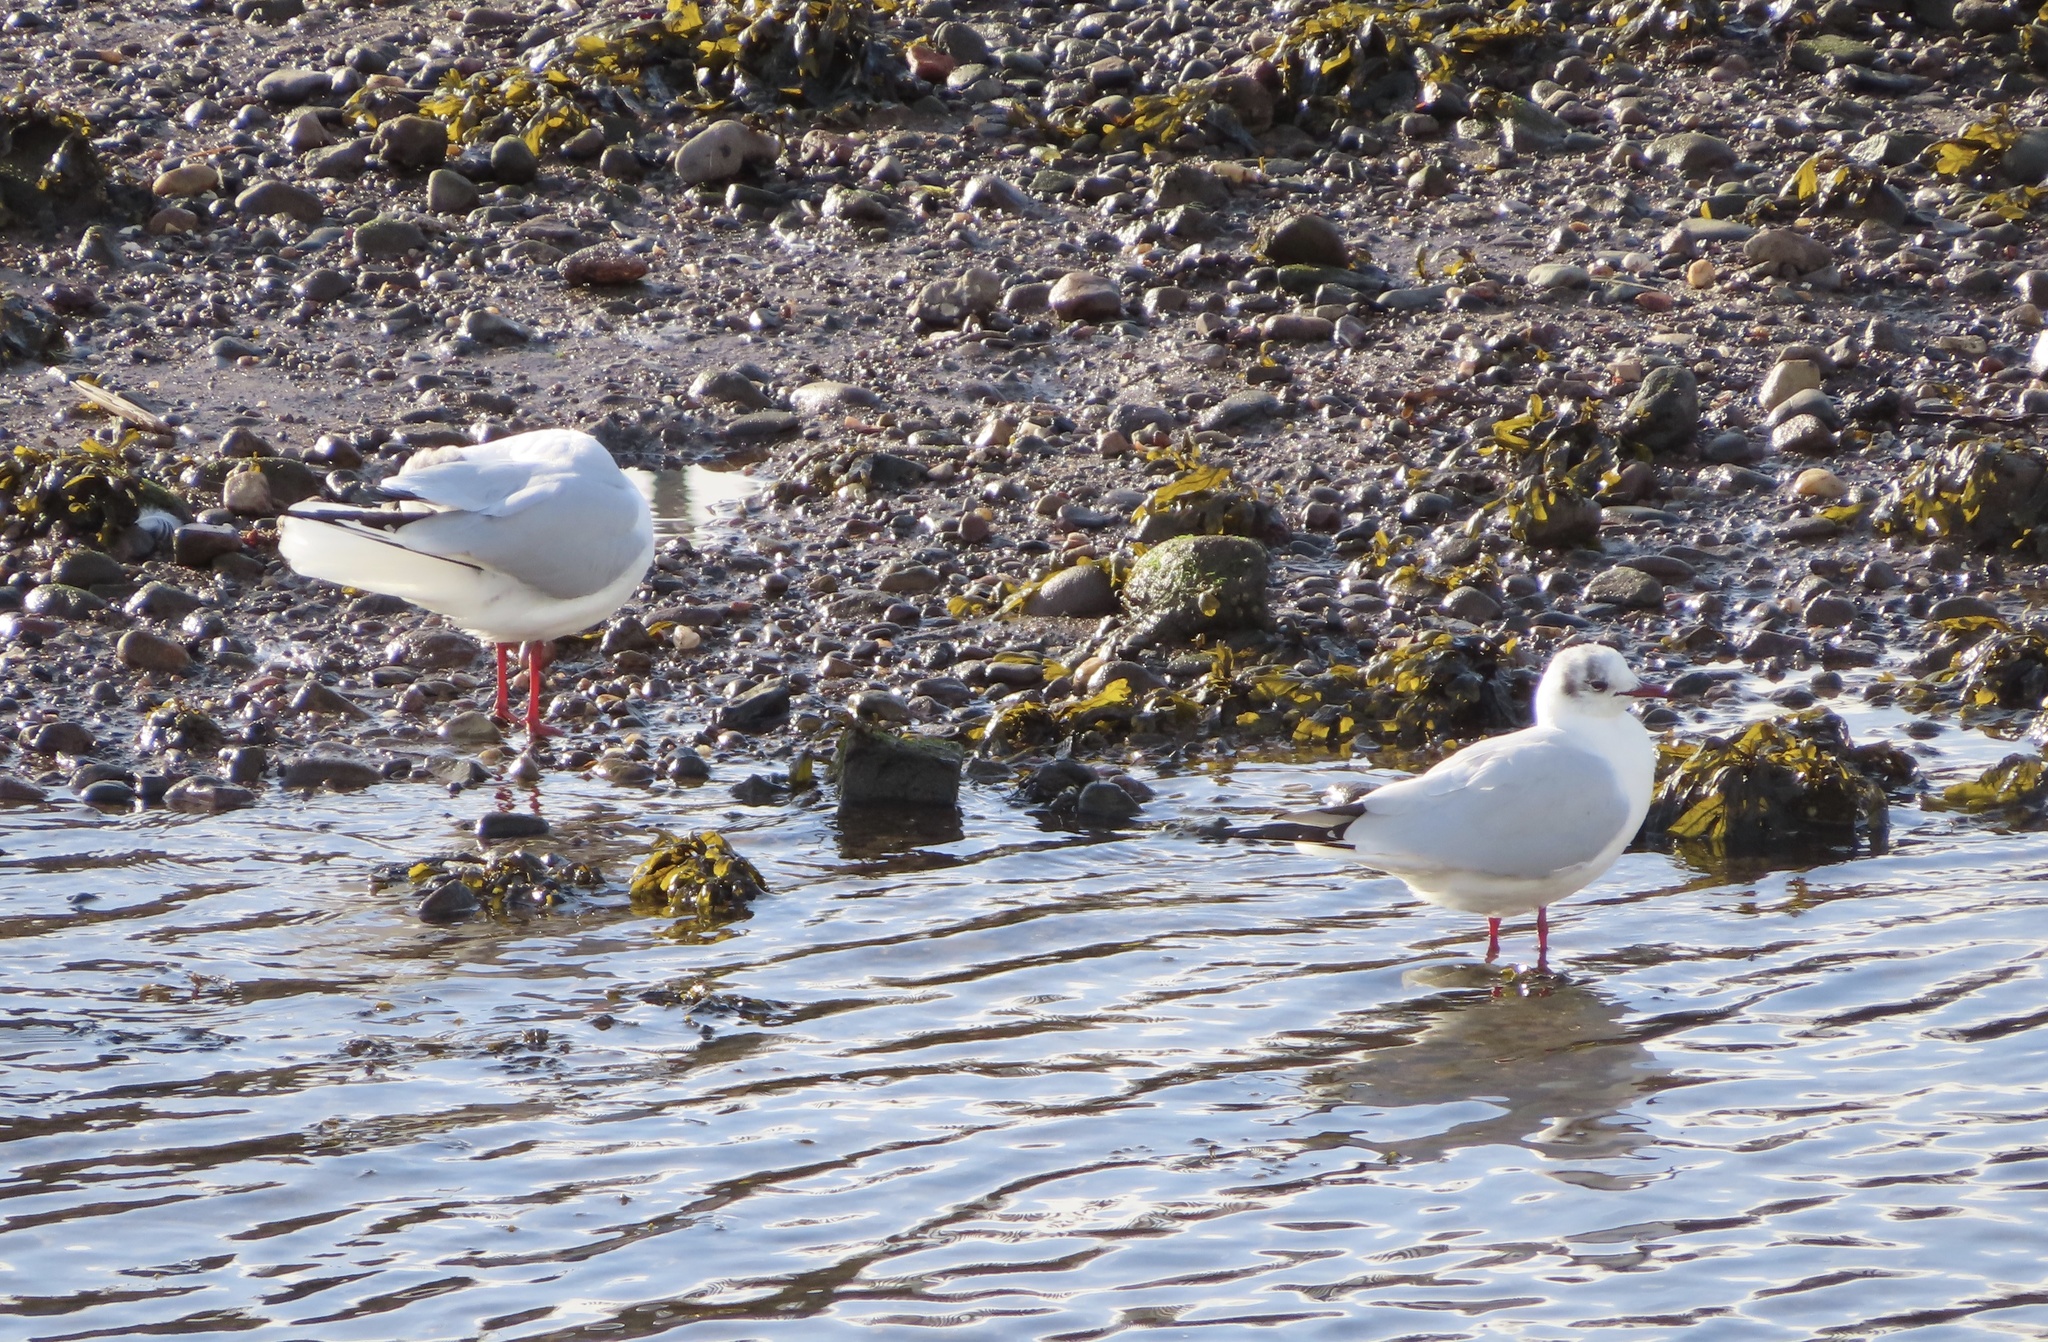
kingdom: Animalia
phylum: Chordata
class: Aves
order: Charadriiformes
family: Laridae
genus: Chroicocephalus
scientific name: Chroicocephalus ridibundus
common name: Black-headed gull
